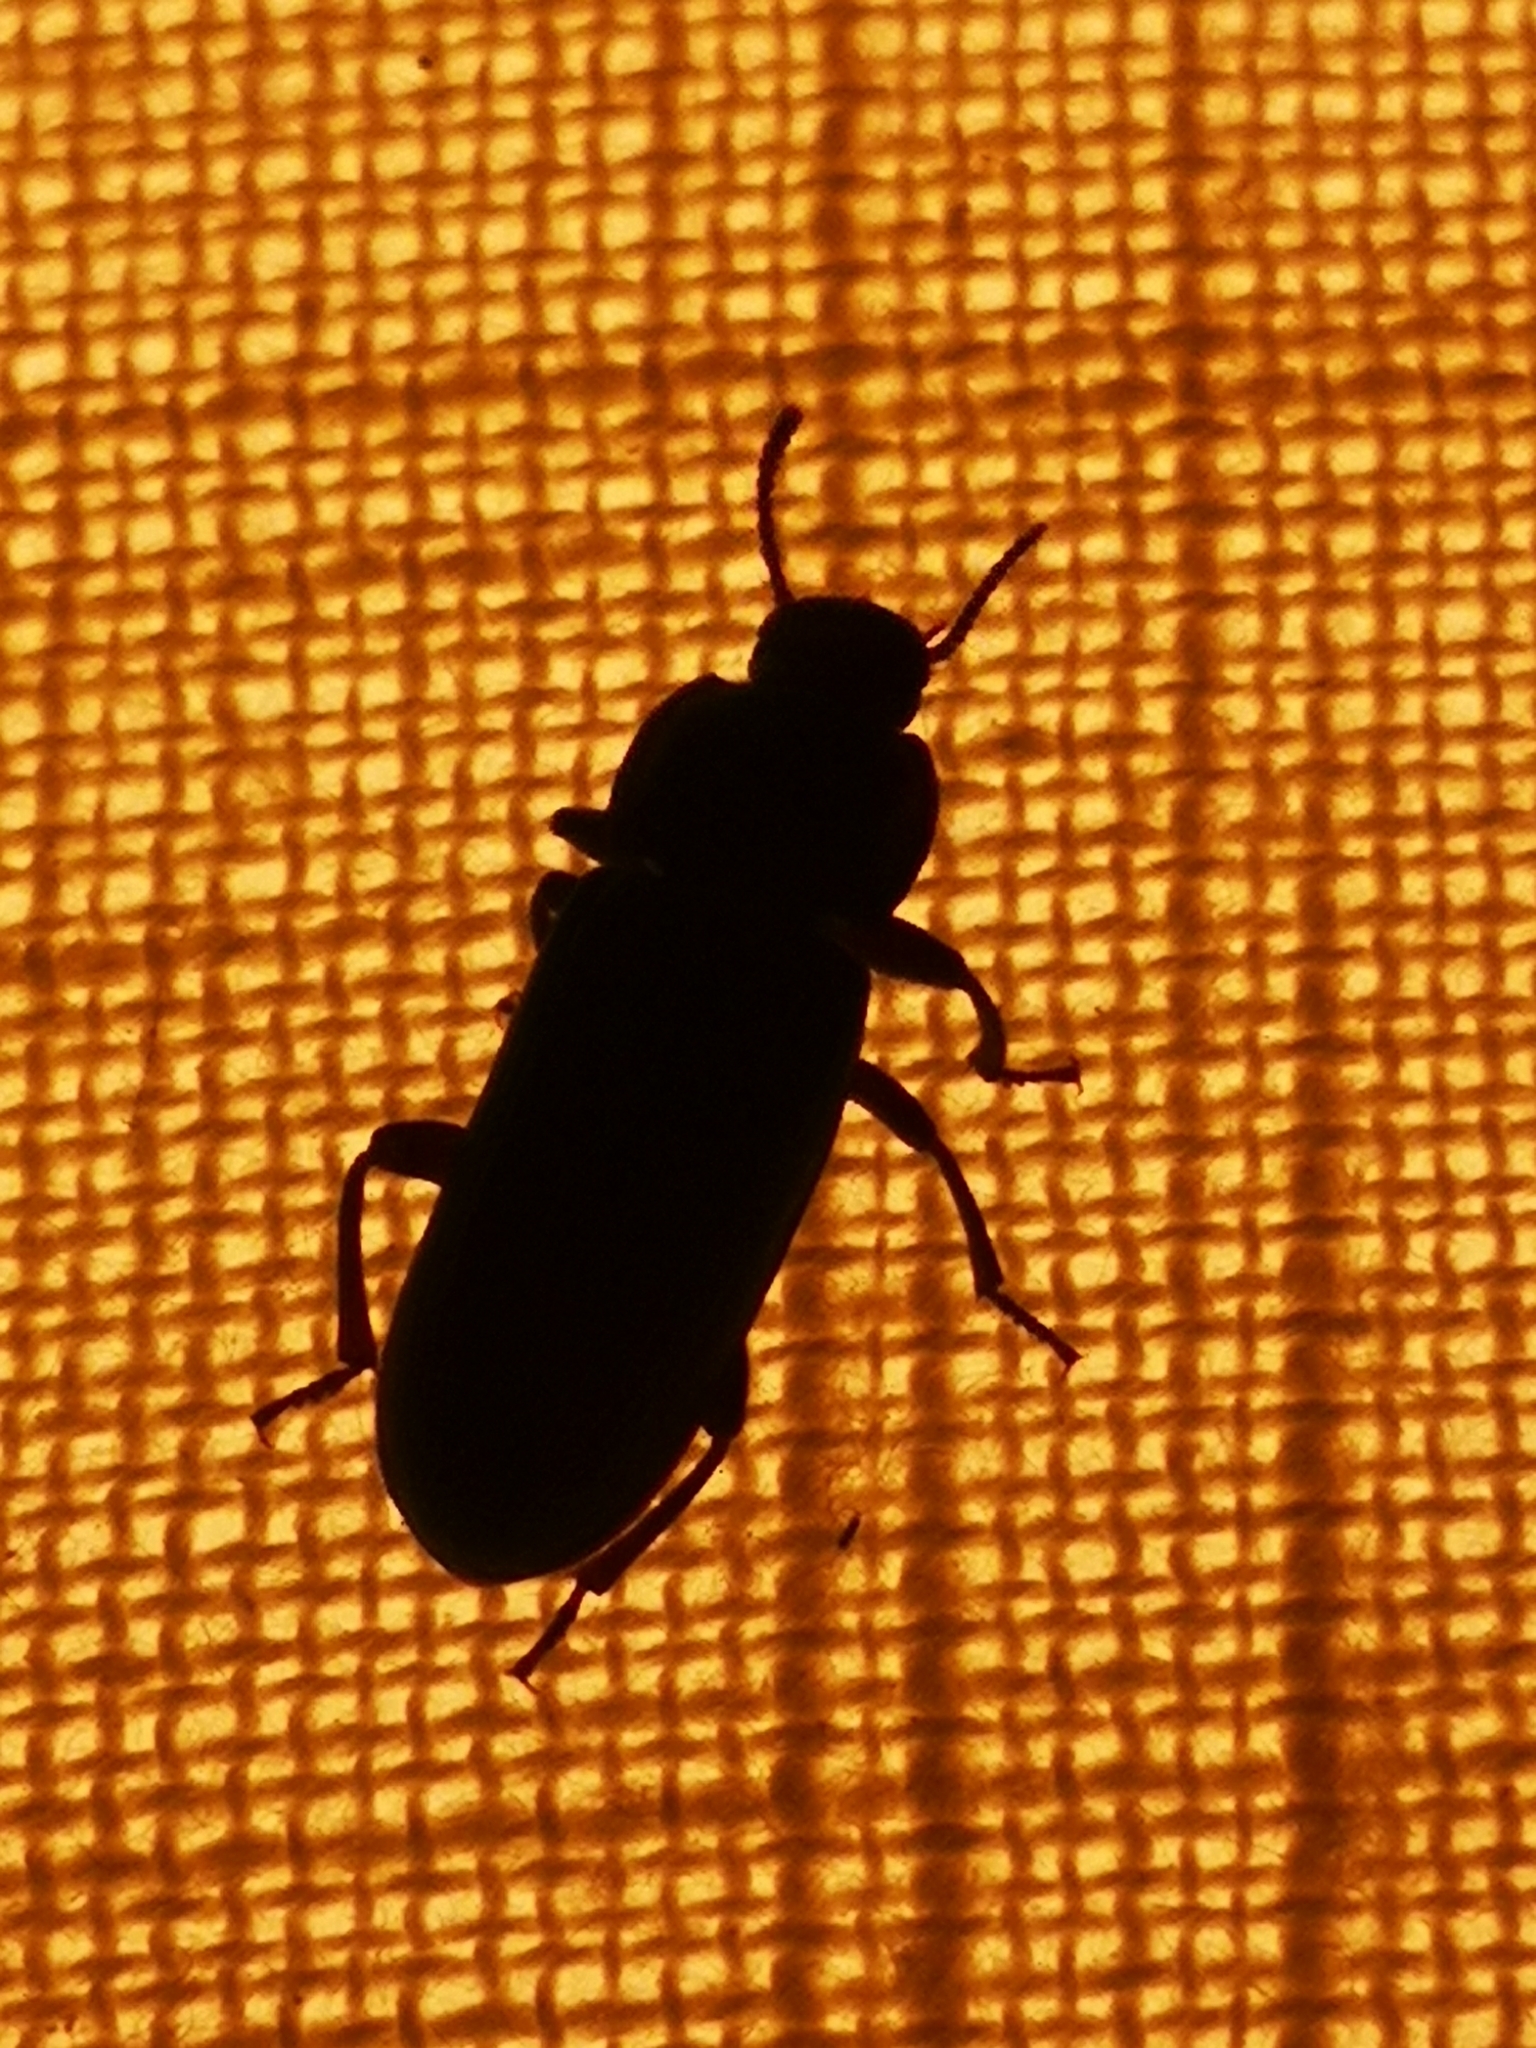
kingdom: Animalia
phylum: Arthropoda
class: Insecta
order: Coleoptera
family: Tenebrionidae
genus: Tenebrio
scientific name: Tenebrio molitor
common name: Hardback beetle
